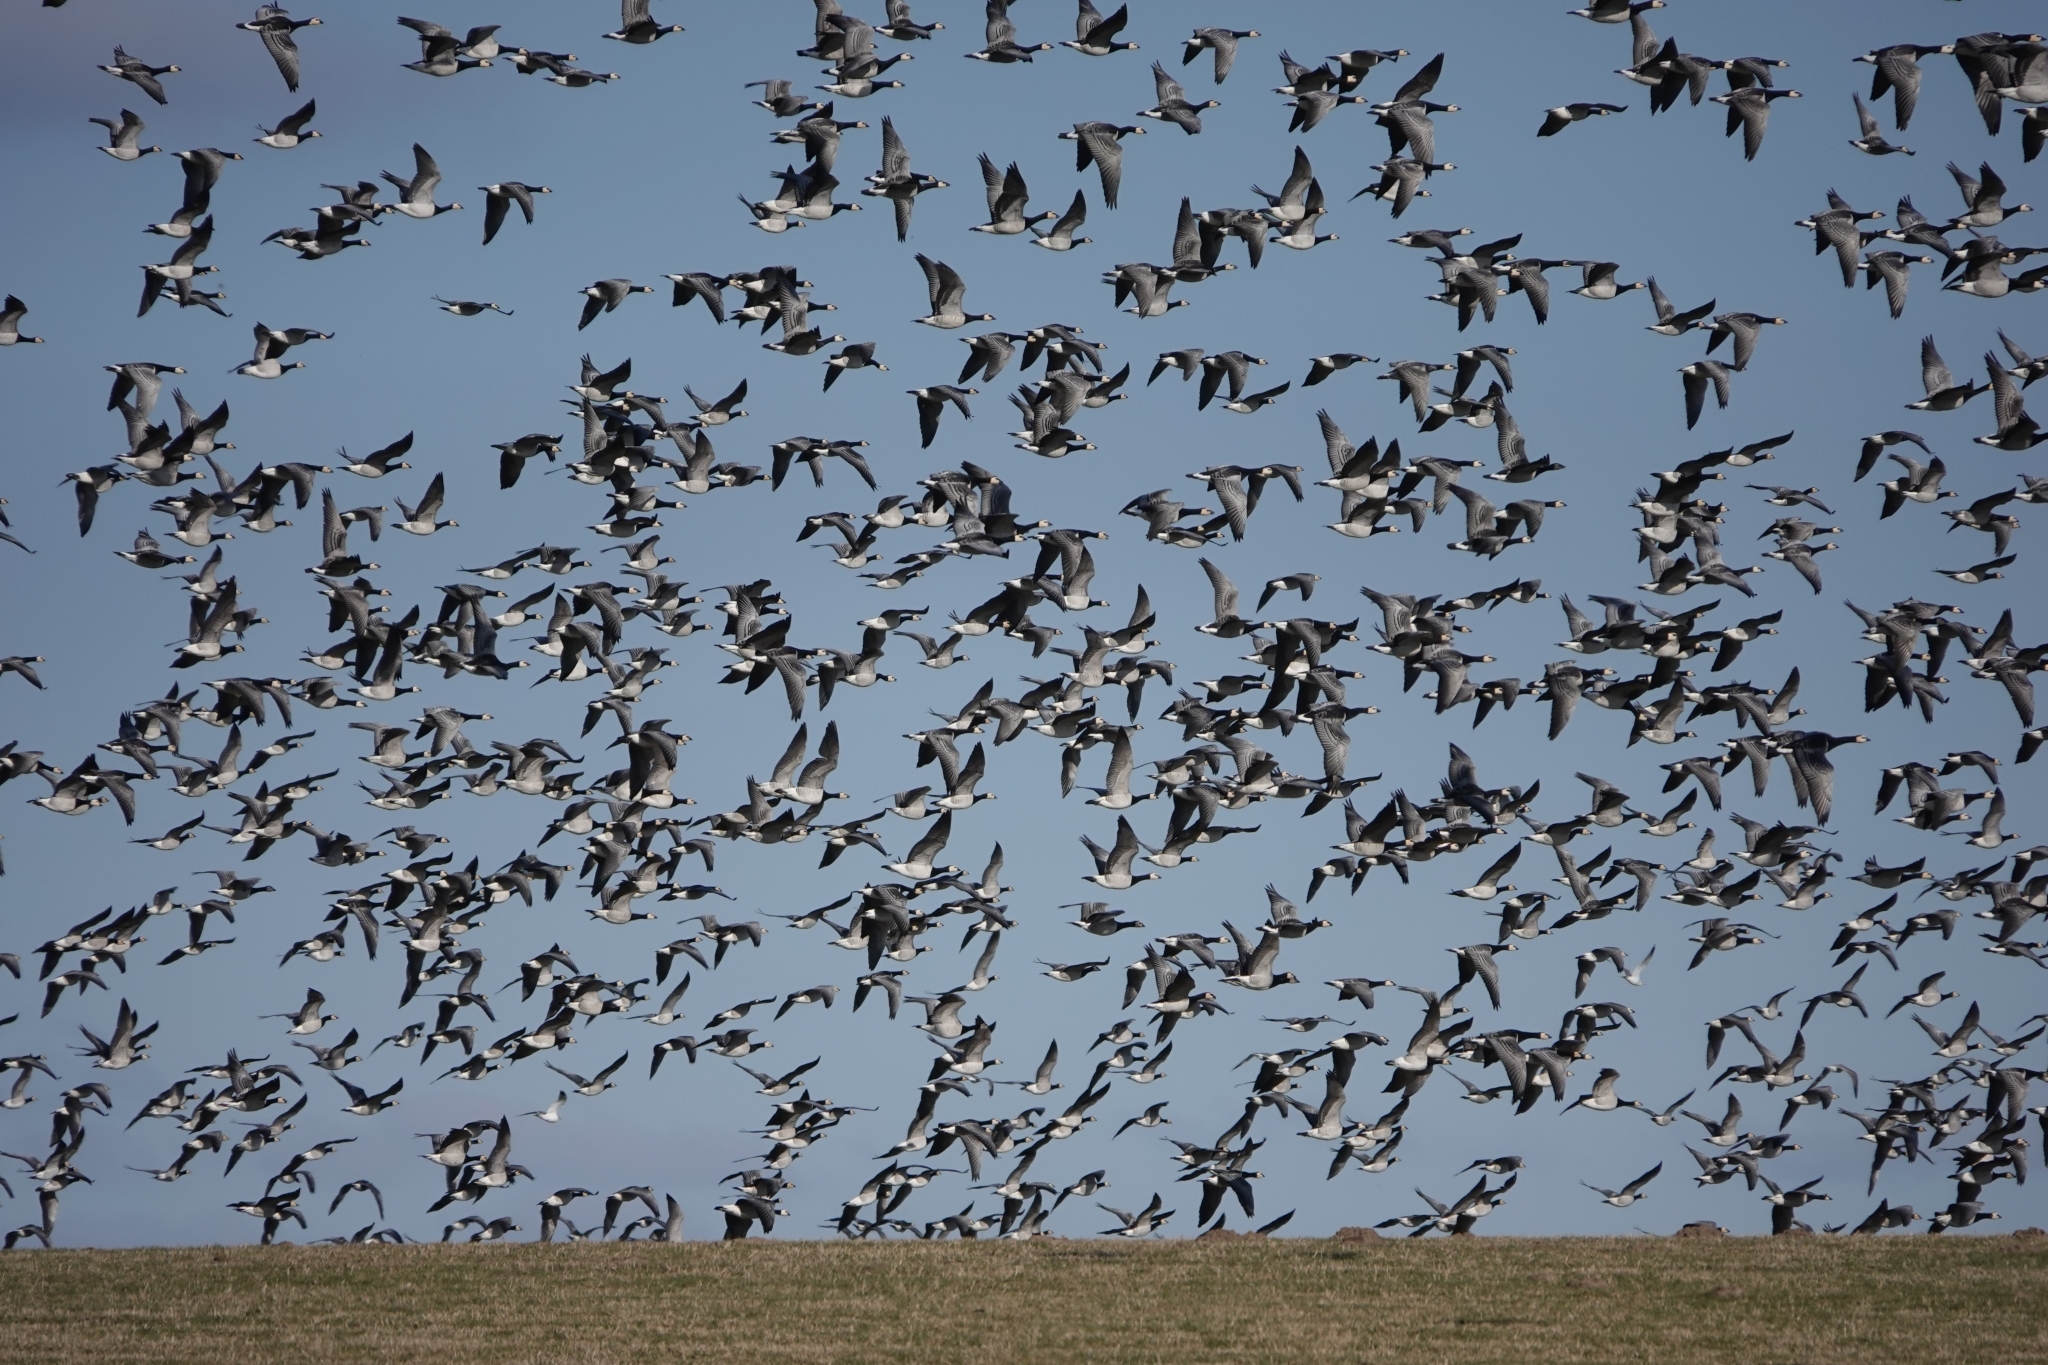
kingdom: Animalia
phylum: Chordata
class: Aves
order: Anseriformes
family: Anatidae
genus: Branta
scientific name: Branta leucopsis
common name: Barnacle goose
